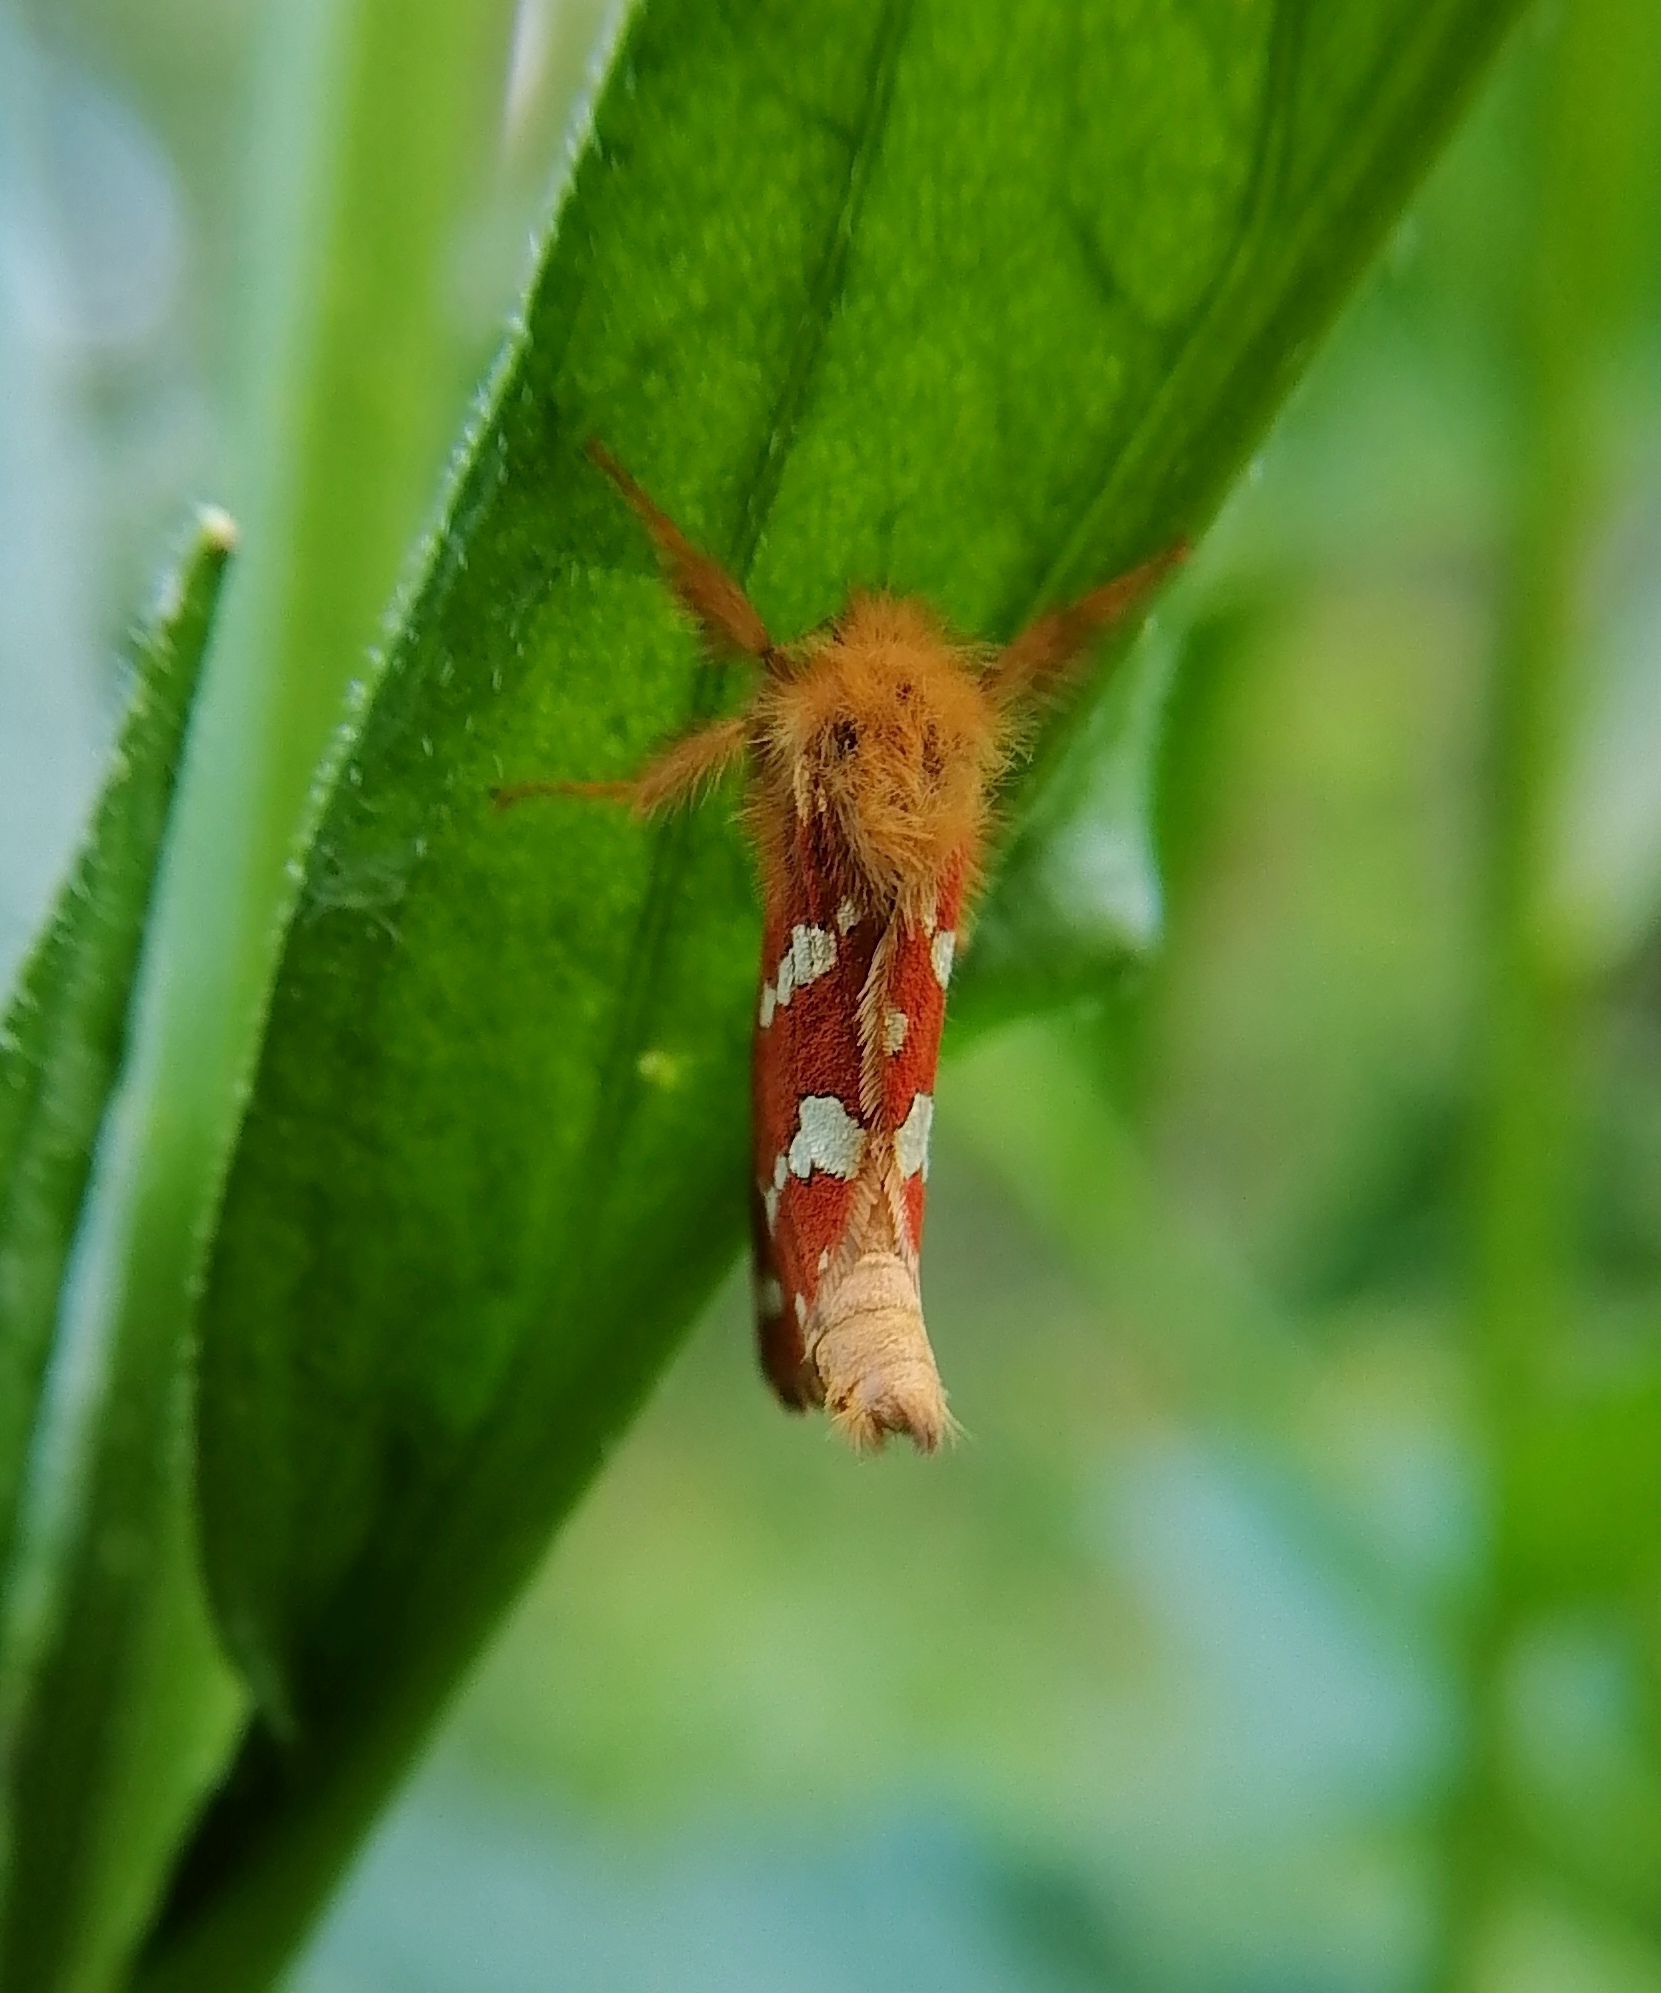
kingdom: Animalia
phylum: Arthropoda
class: Insecta
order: Lepidoptera
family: Hepialidae
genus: Phymatopus
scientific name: Phymatopus hecta
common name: Gold swift
